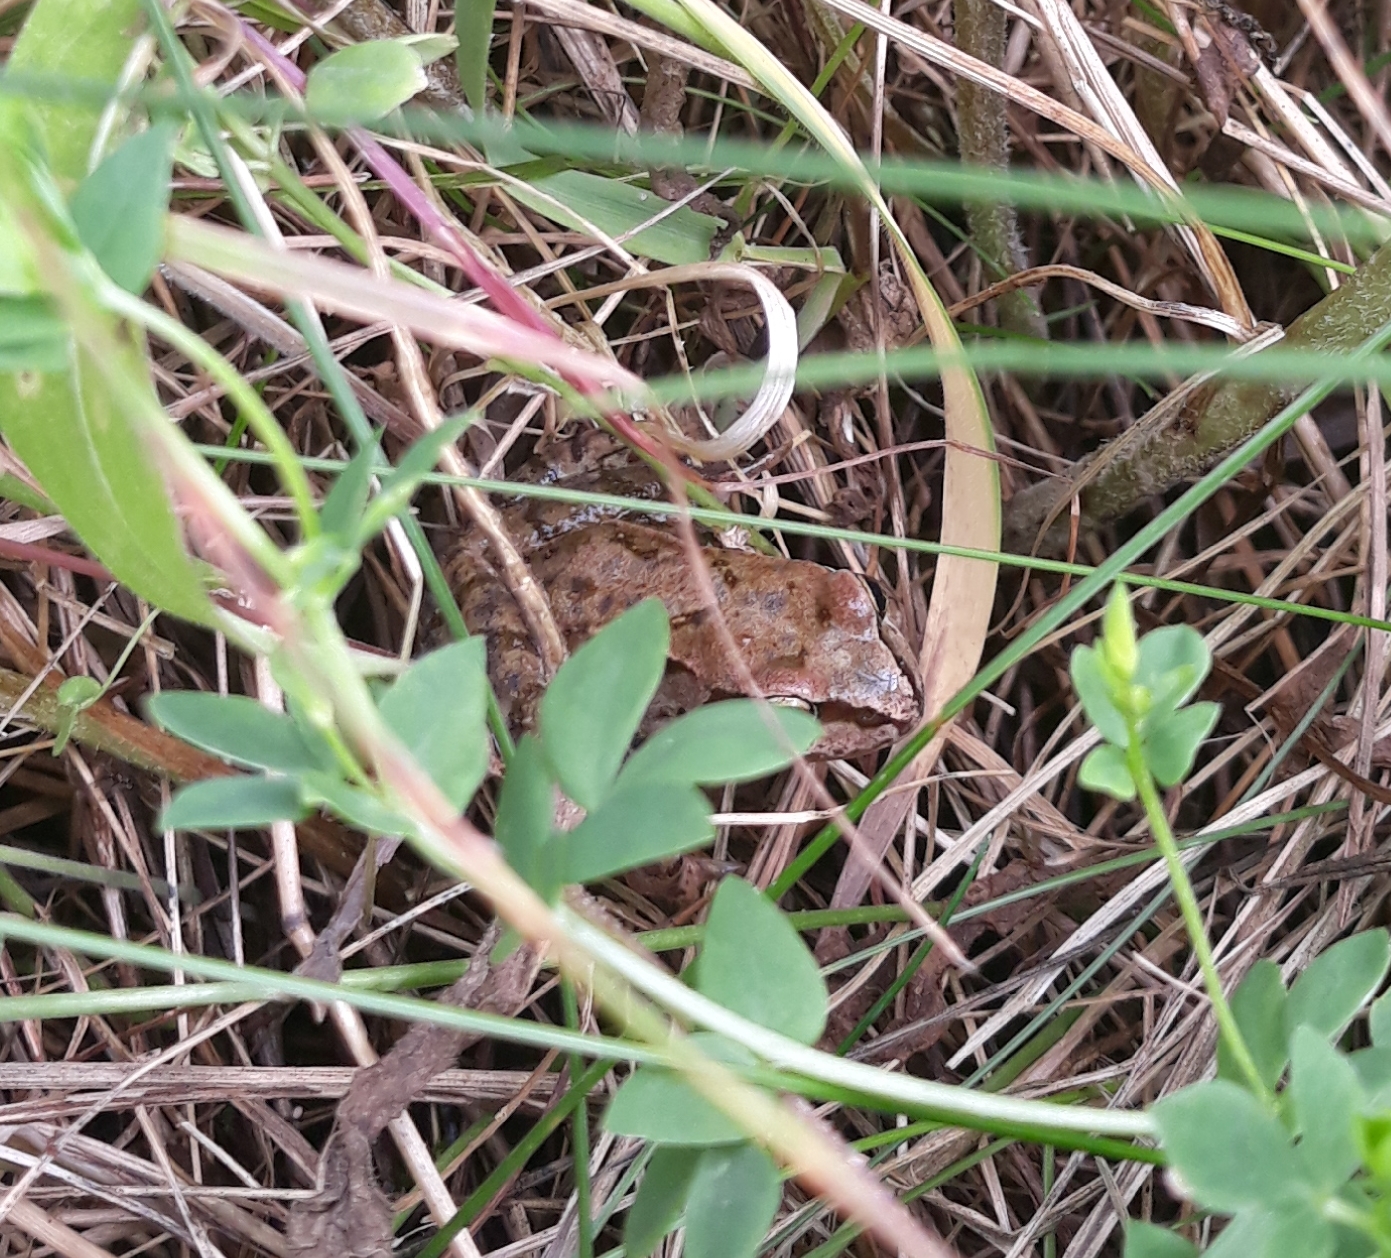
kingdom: Animalia
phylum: Chordata
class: Amphibia
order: Anura
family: Ranidae
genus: Rana
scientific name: Rana temporaria
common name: Common frog
